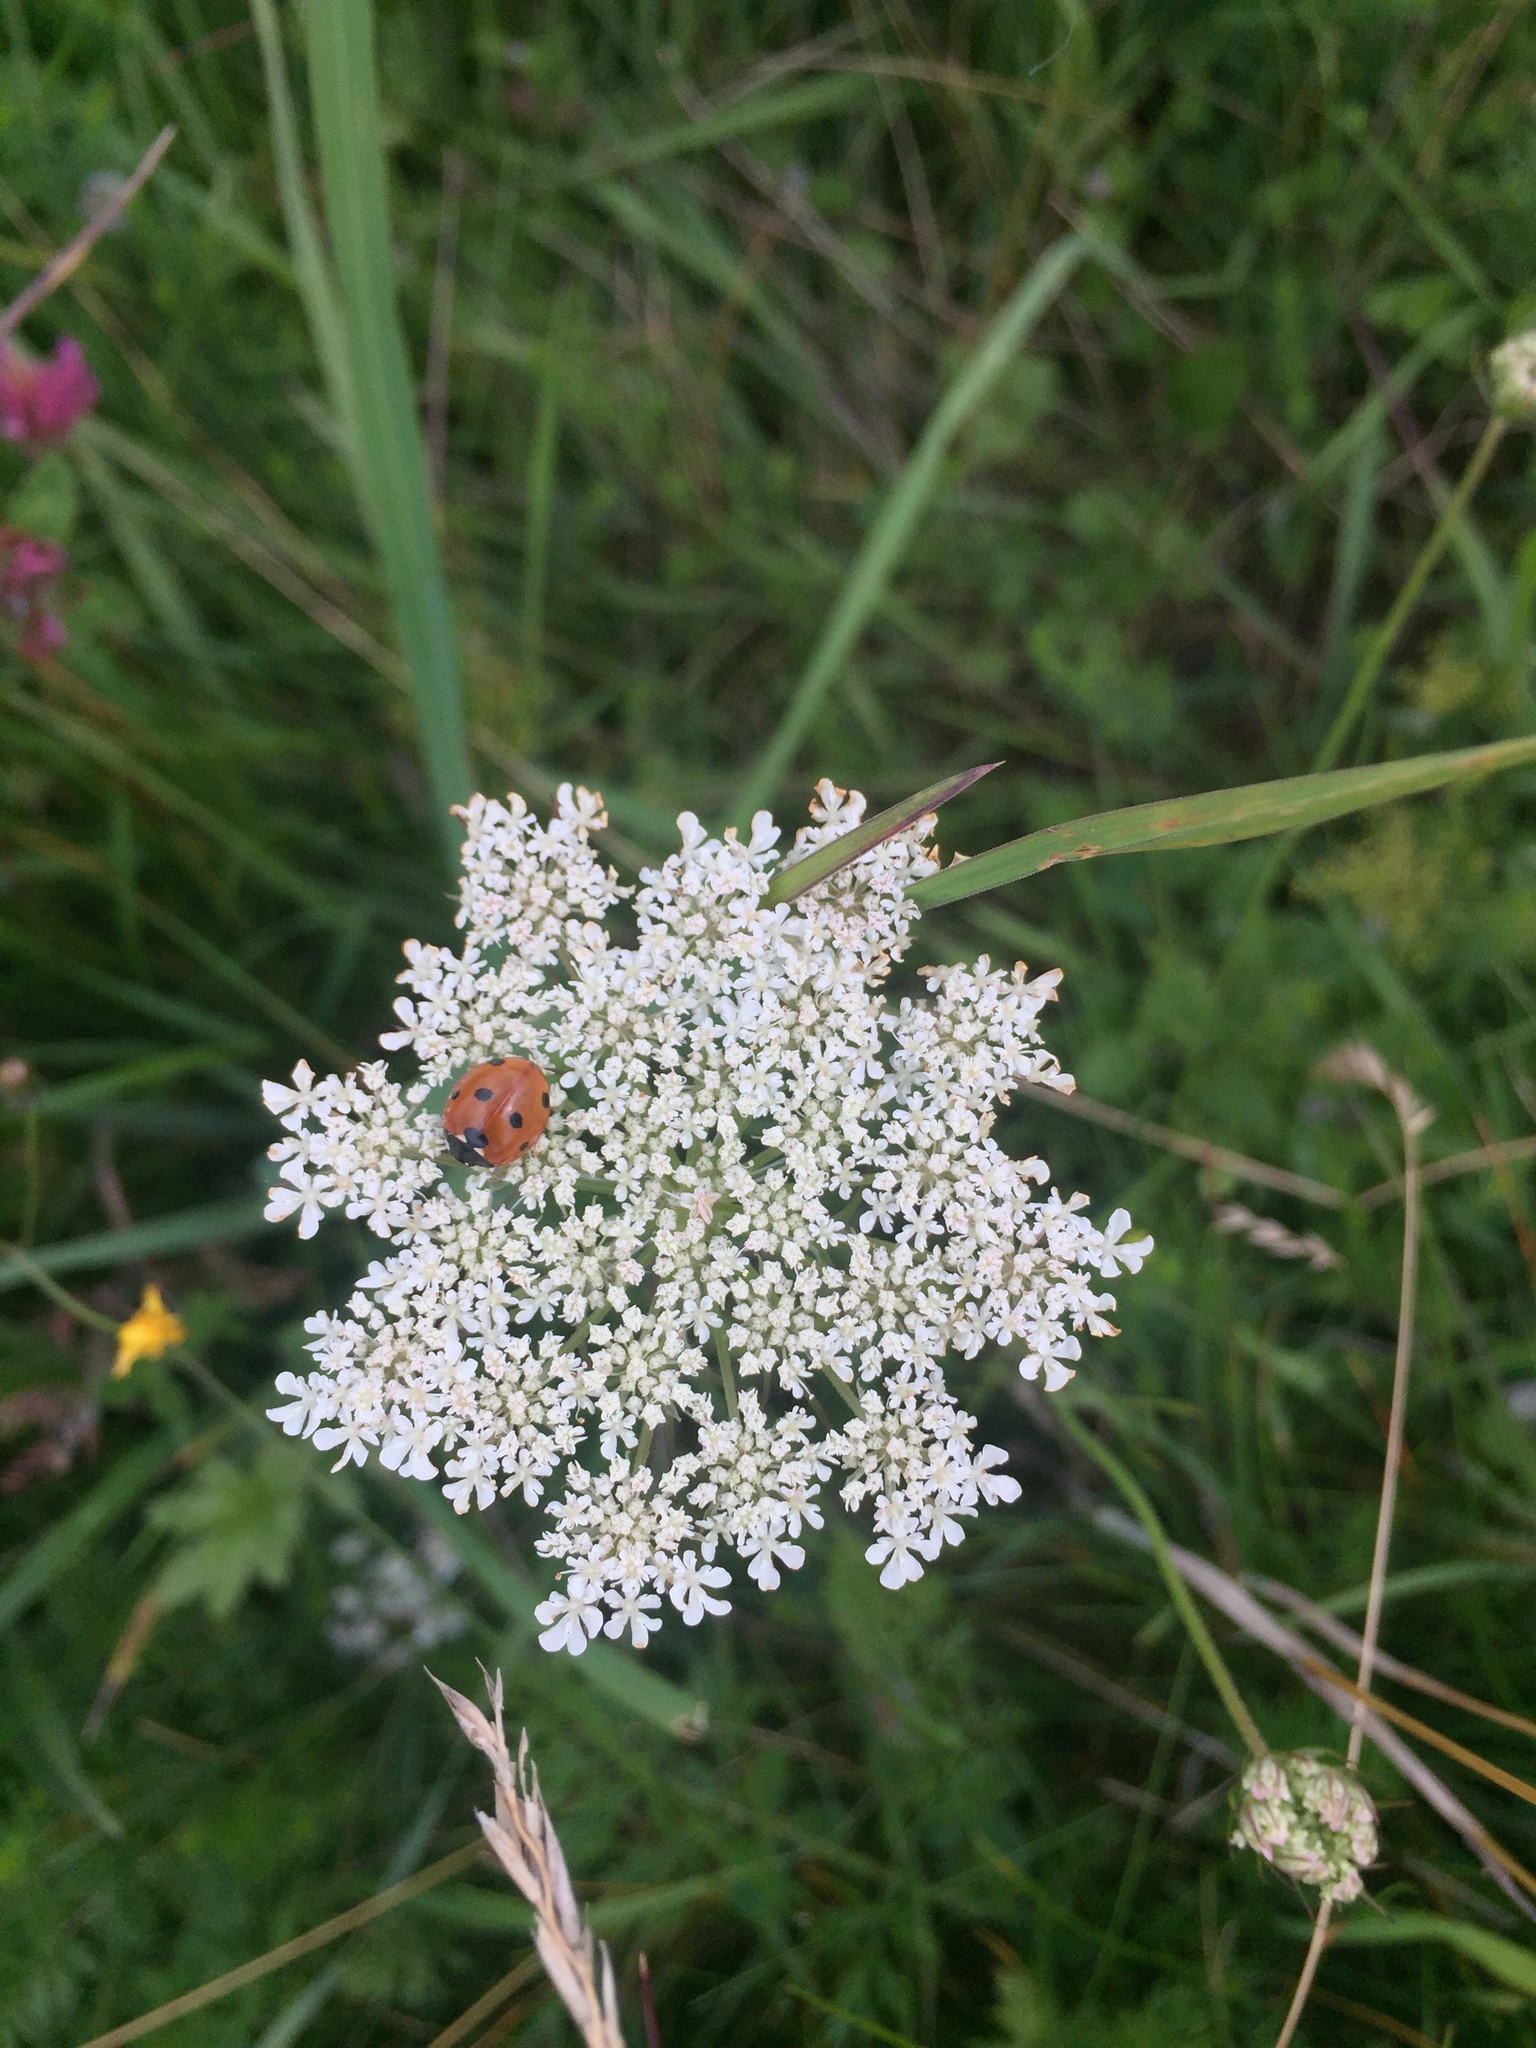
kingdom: Animalia
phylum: Arthropoda
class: Insecta
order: Coleoptera
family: Coccinellidae
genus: Coccinella
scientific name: Coccinella septempunctata
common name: Sevenspotted lady beetle
